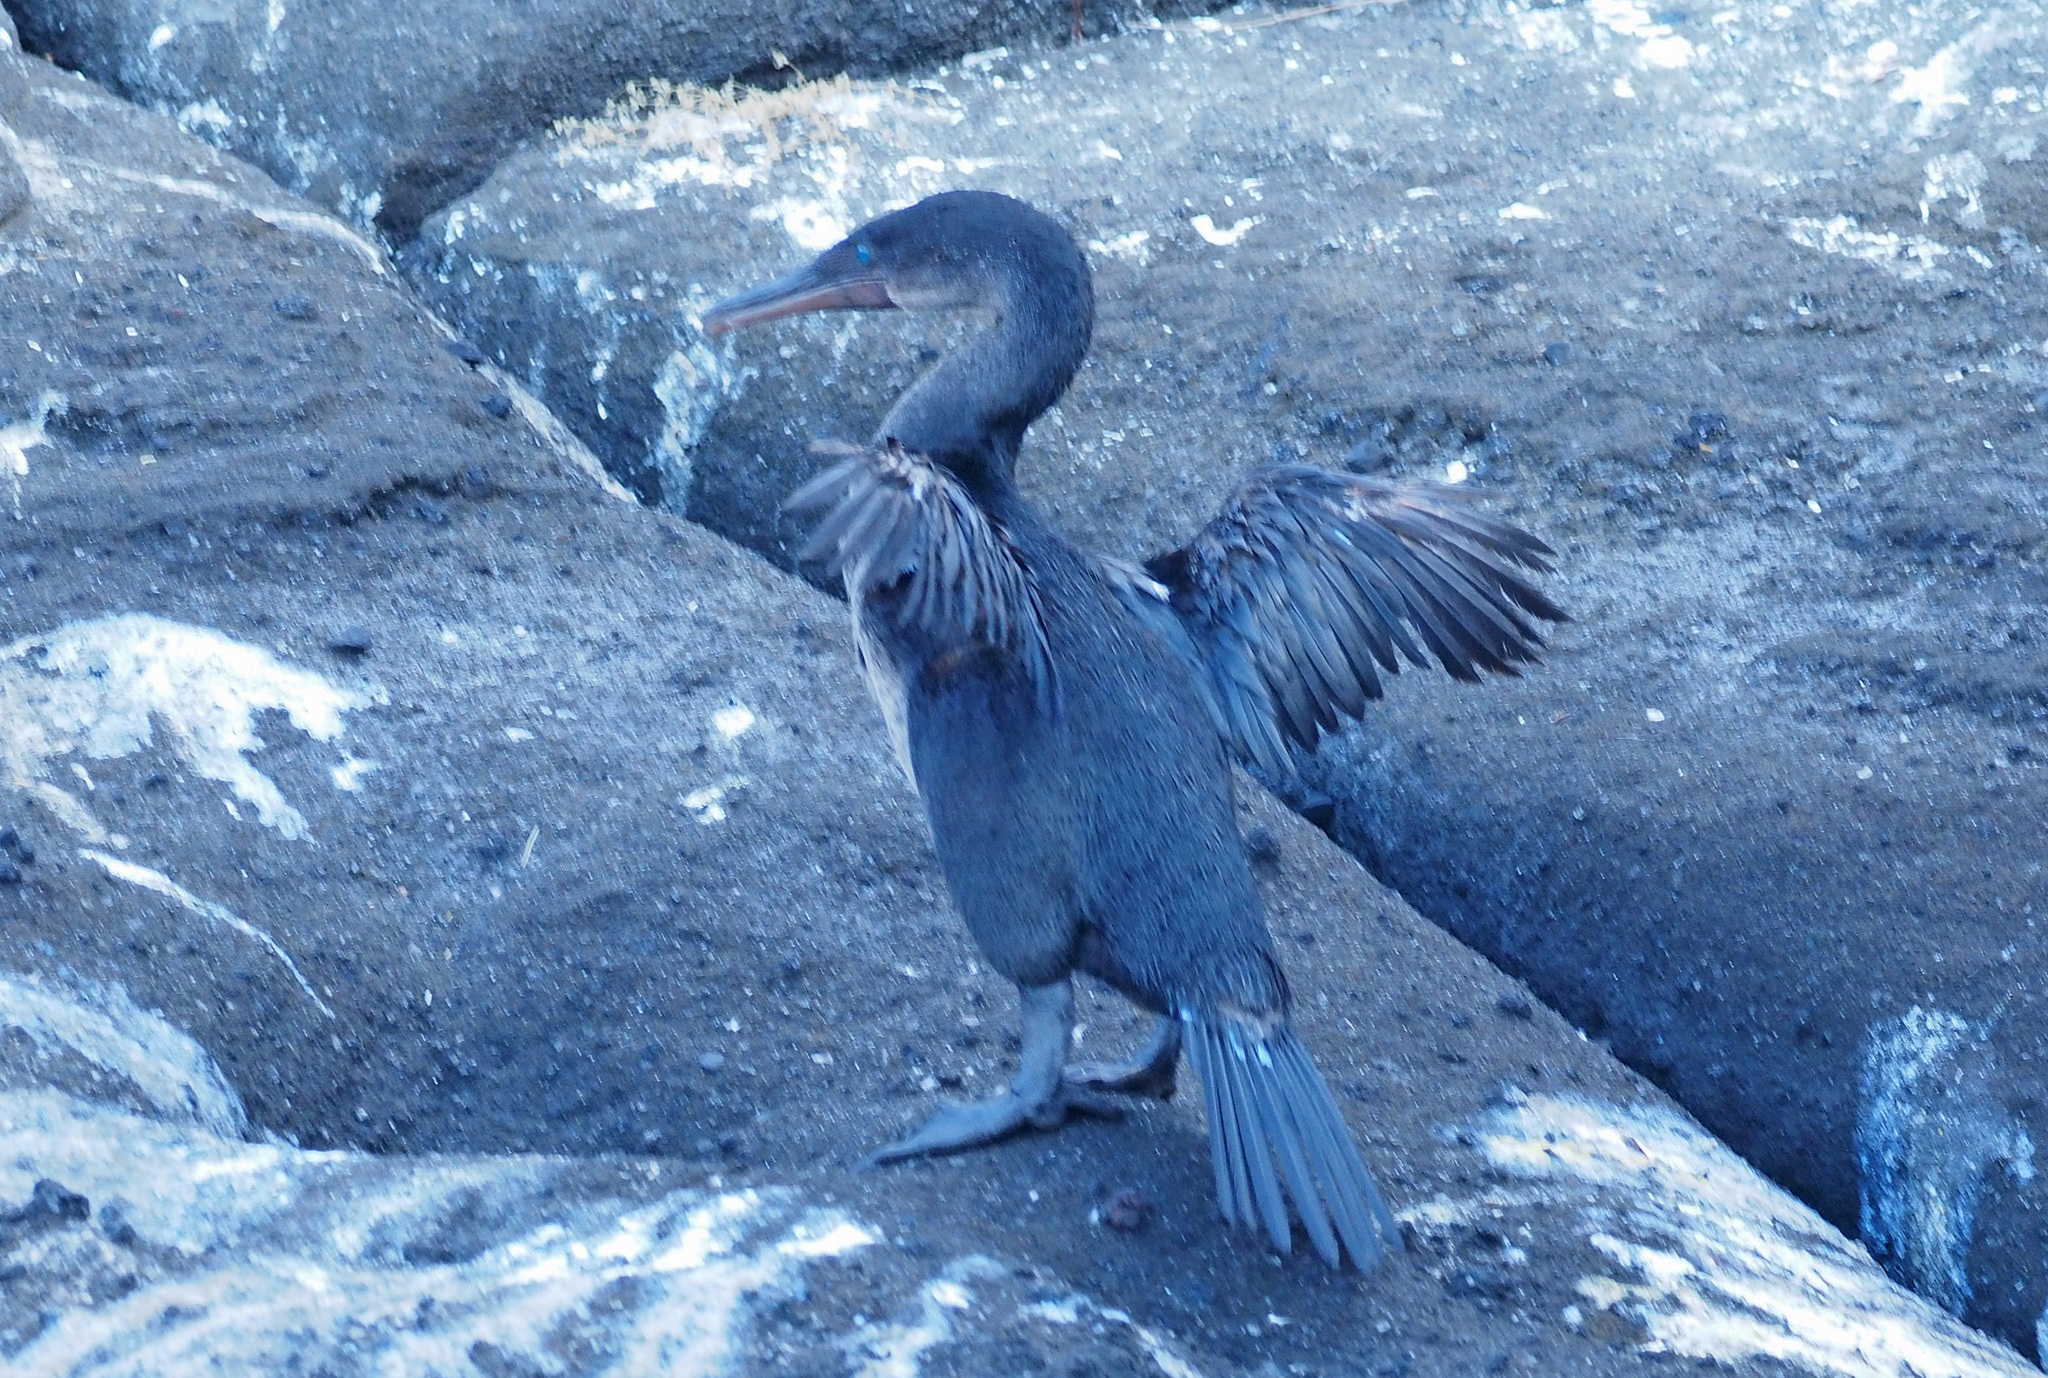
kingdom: Animalia
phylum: Chordata
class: Aves
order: Suliformes
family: Phalacrocoracidae
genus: Phalacrocorax
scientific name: Phalacrocorax harrisi
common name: Flightless cormorant
